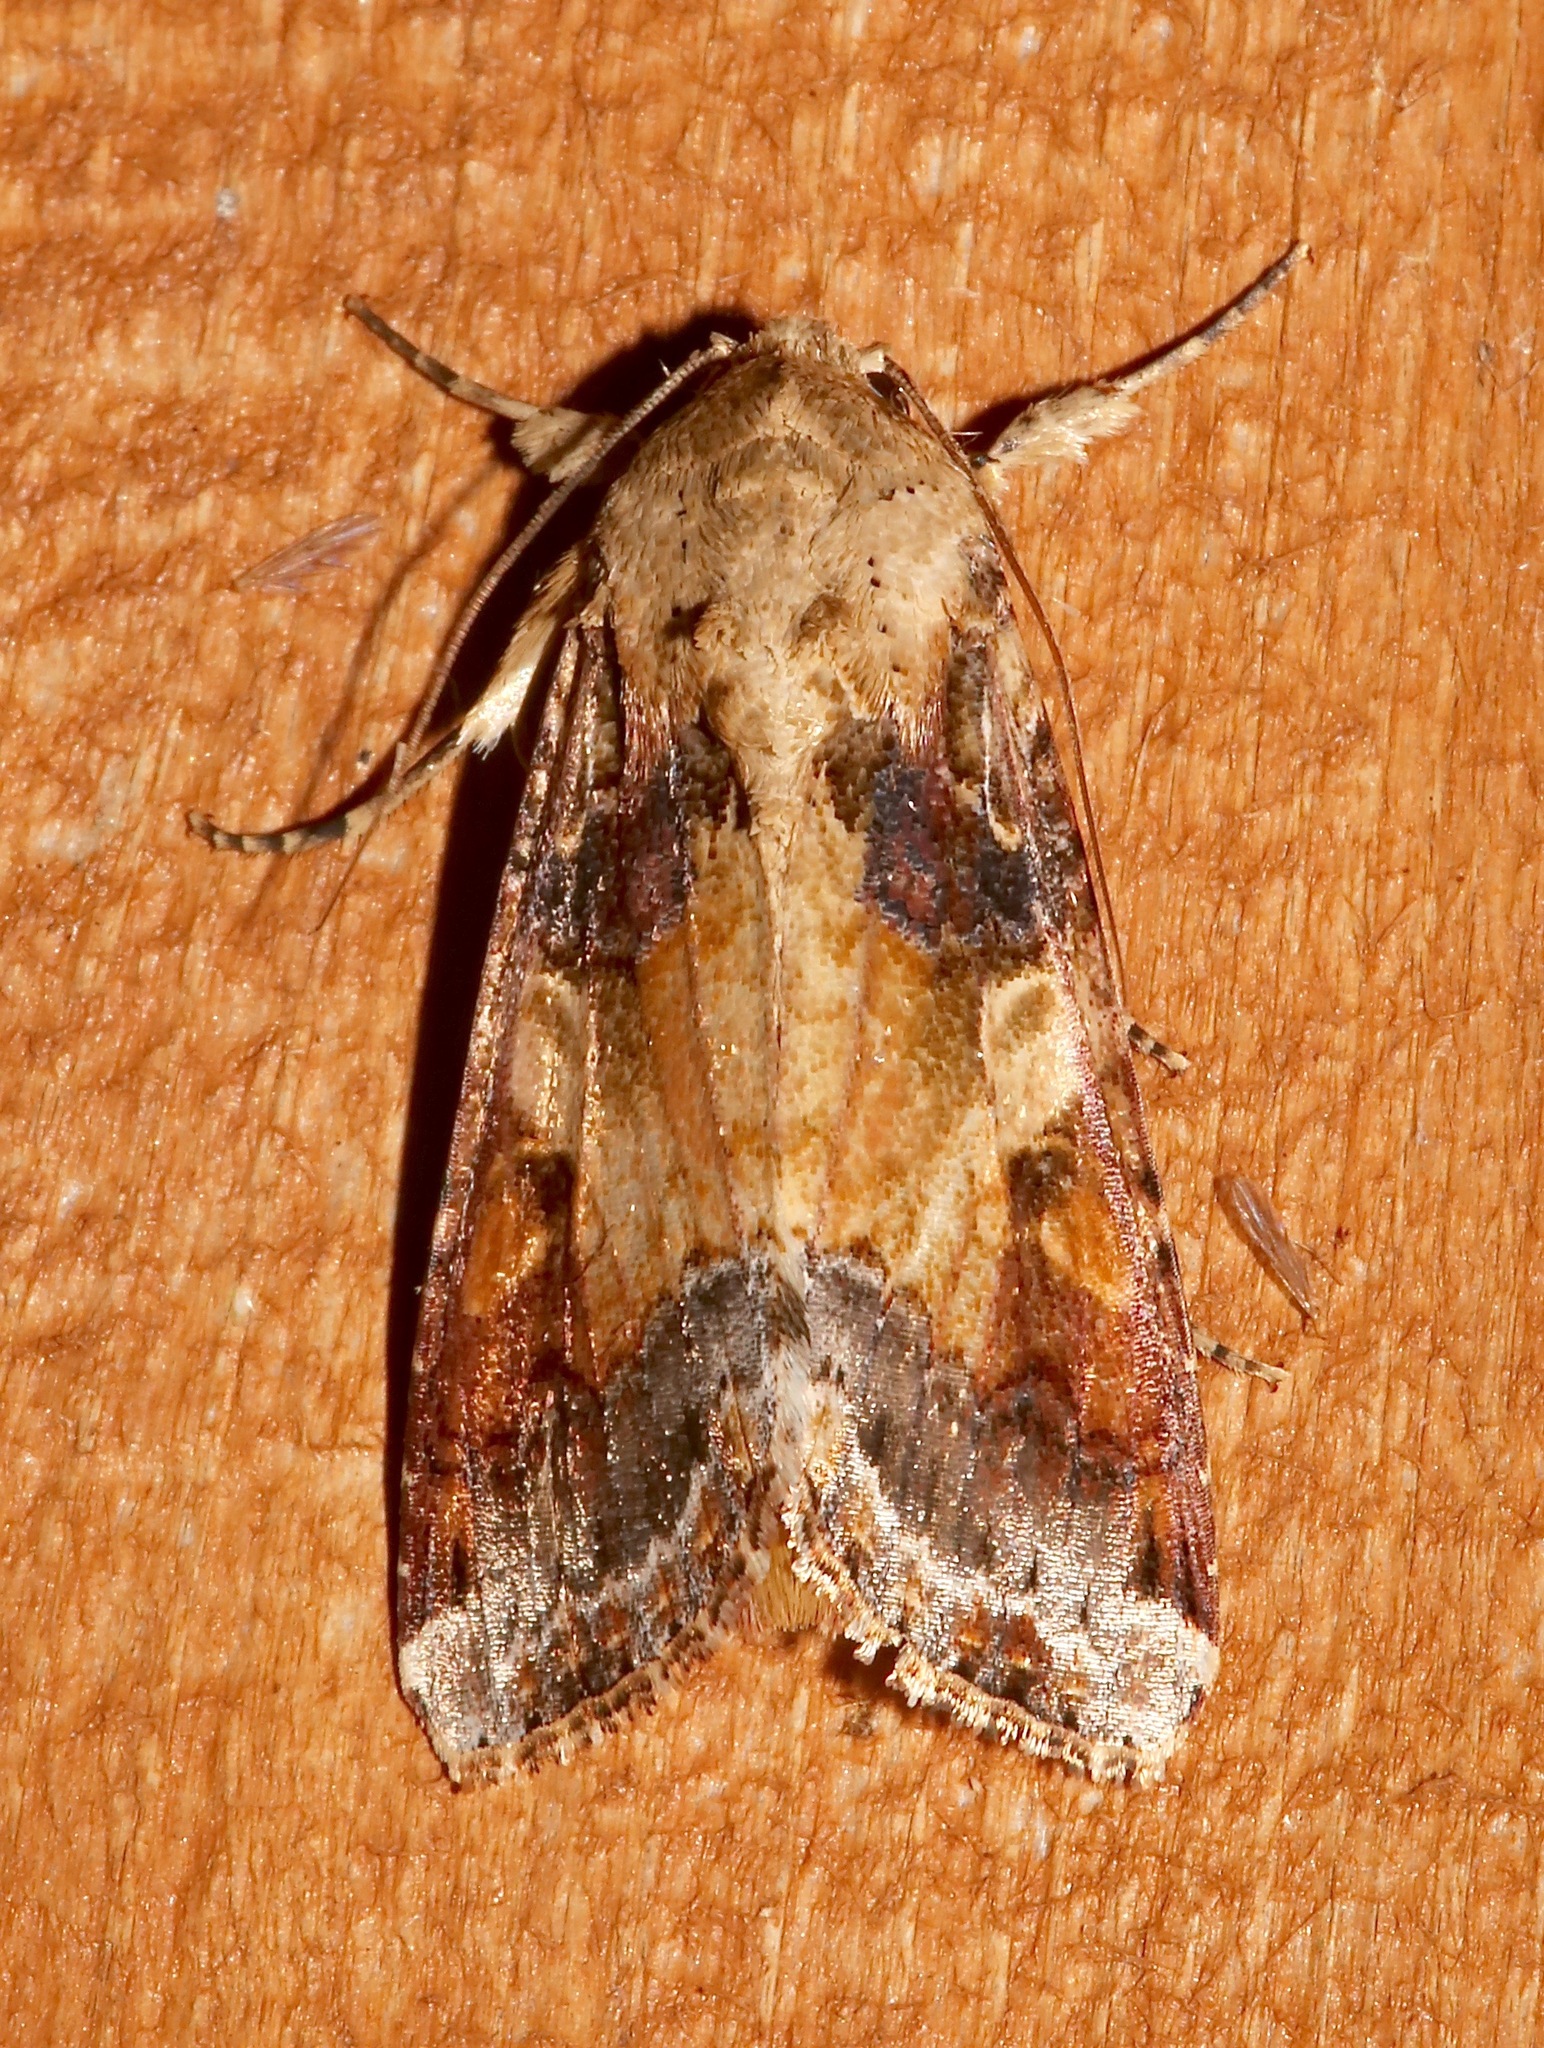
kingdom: Animalia
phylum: Arthropoda
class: Insecta
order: Lepidoptera
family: Noctuidae
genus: Spodoptera
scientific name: Spodoptera latifascia
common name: Velvet armyworm moth
